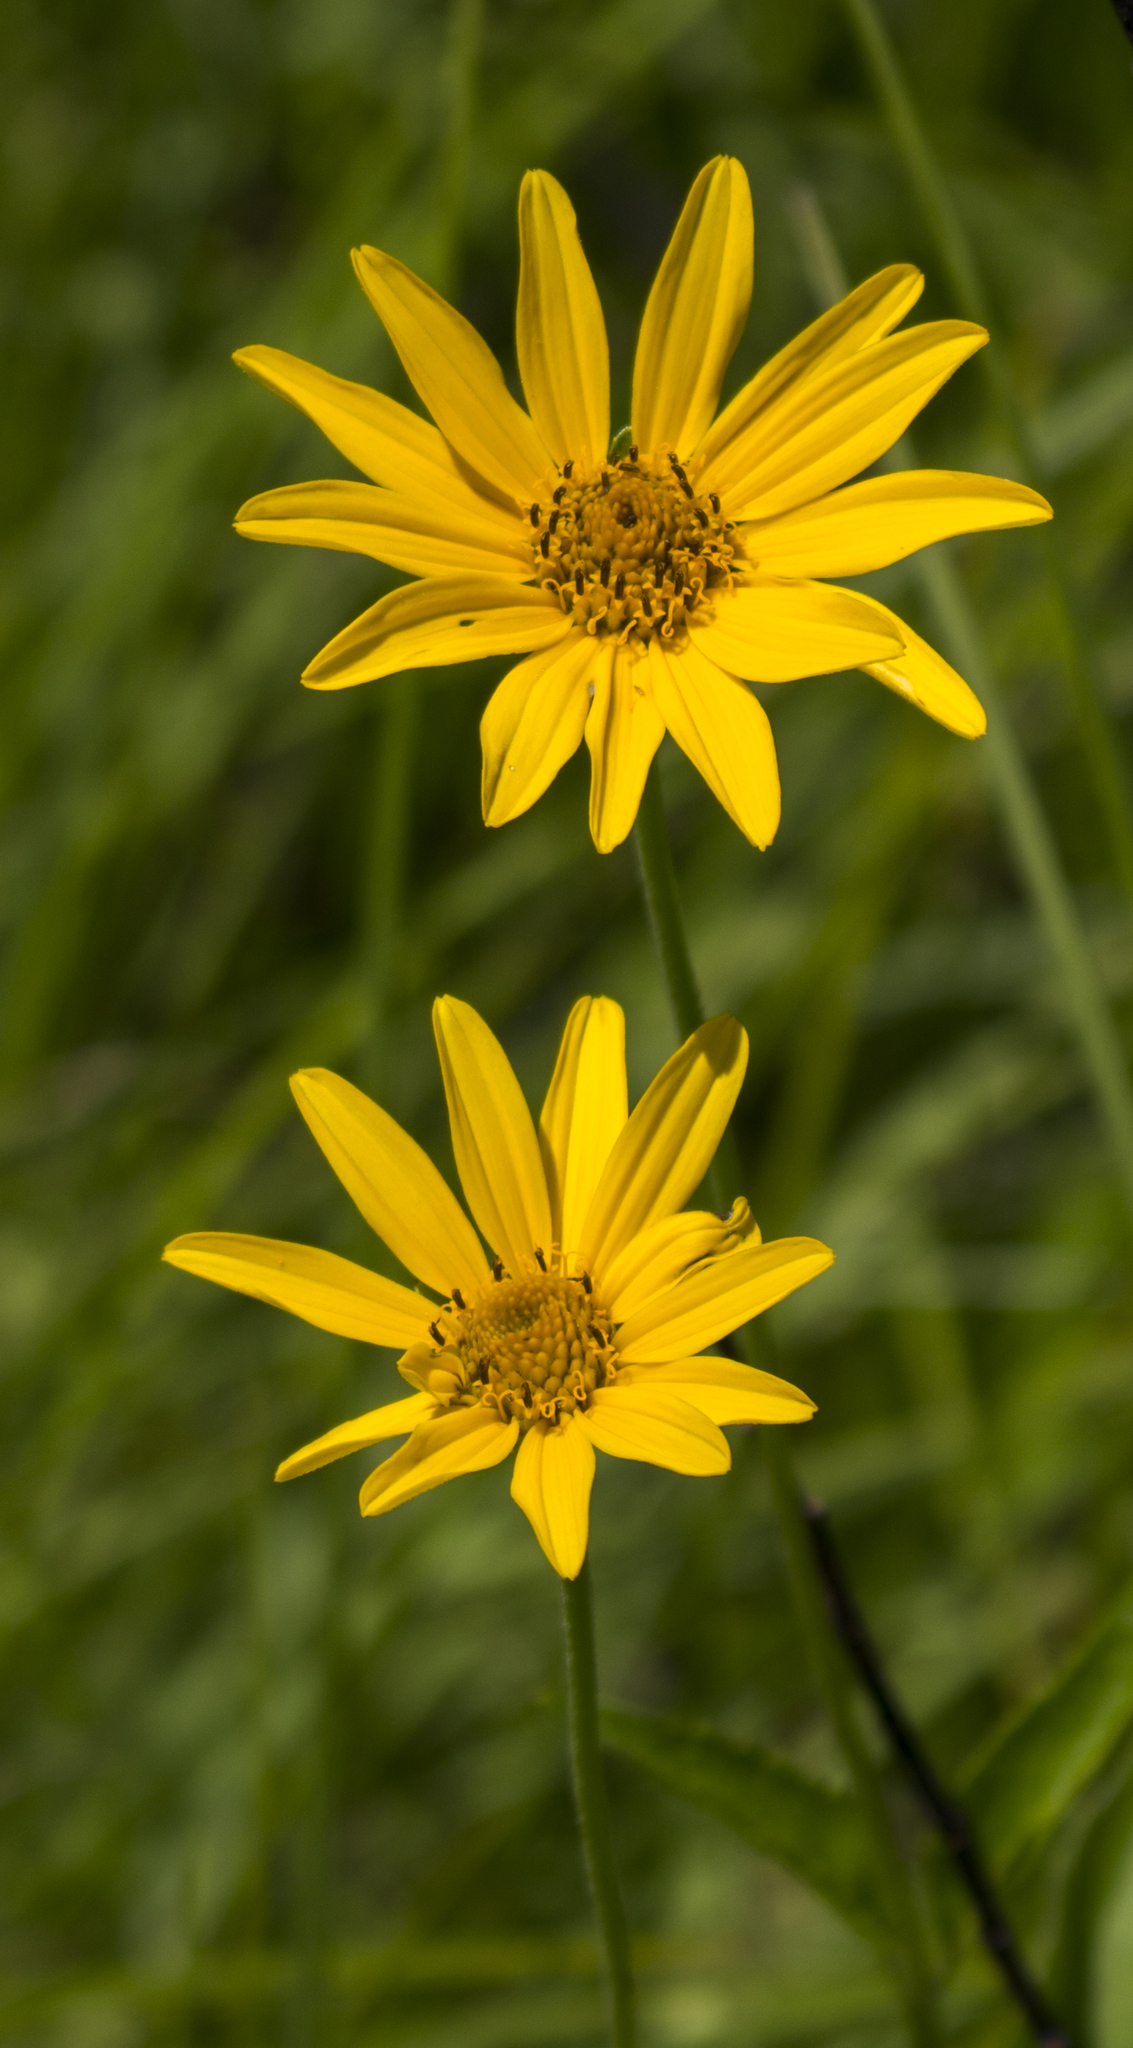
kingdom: Plantae
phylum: Tracheophyta
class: Magnoliopsida
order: Asterales
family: Asteraceae
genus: Heliopsis
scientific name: Heliopsis helianthoides
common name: False sunflower
